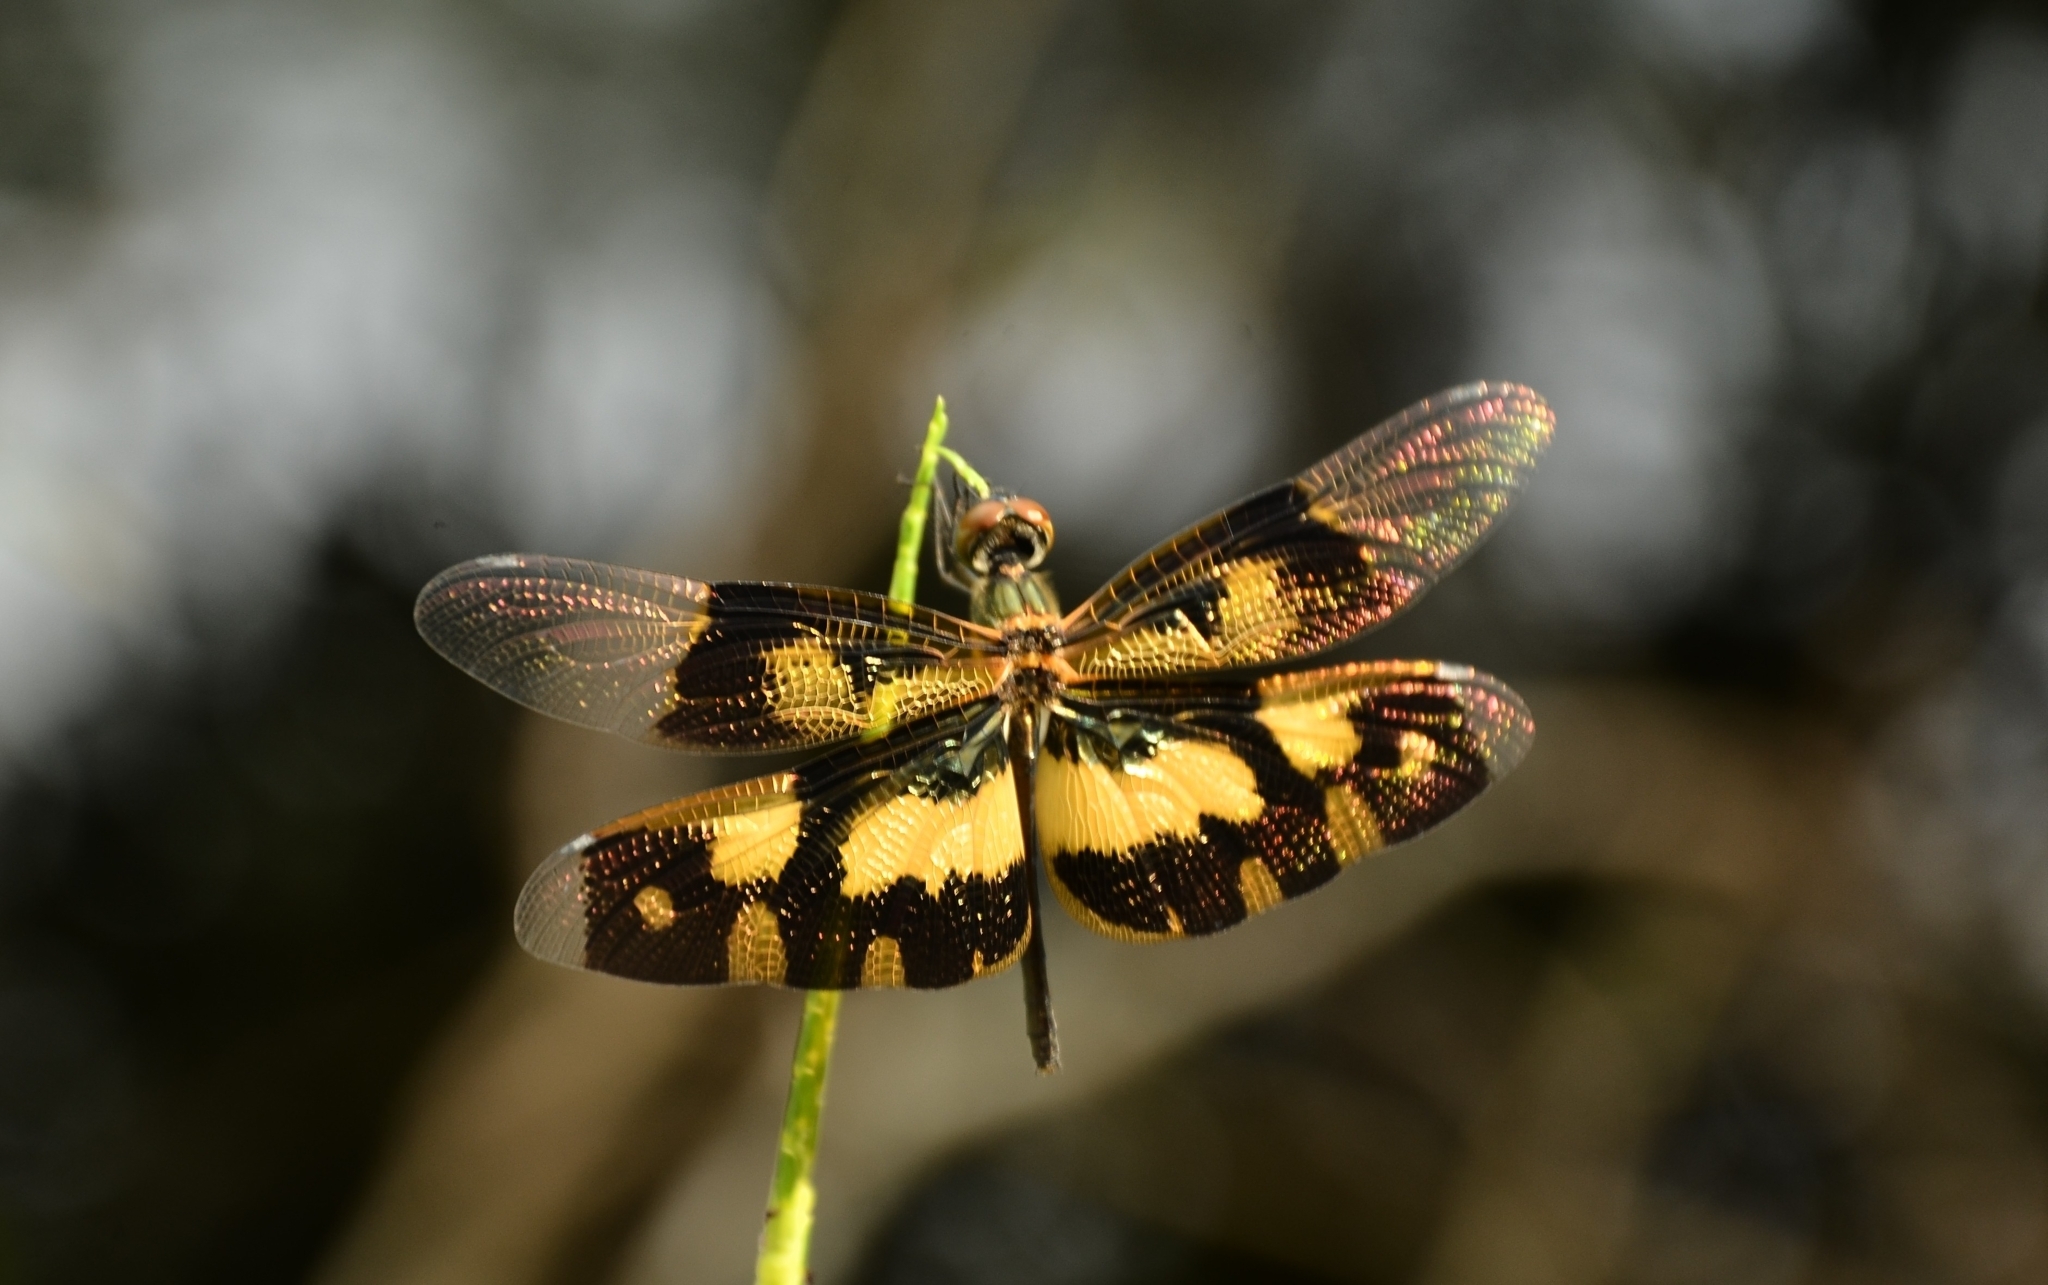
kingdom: Animalia
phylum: Arthropoda
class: Insecta
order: Odonata
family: Libellulidae
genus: Rhyothemis
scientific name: Rhyothemis variegata
